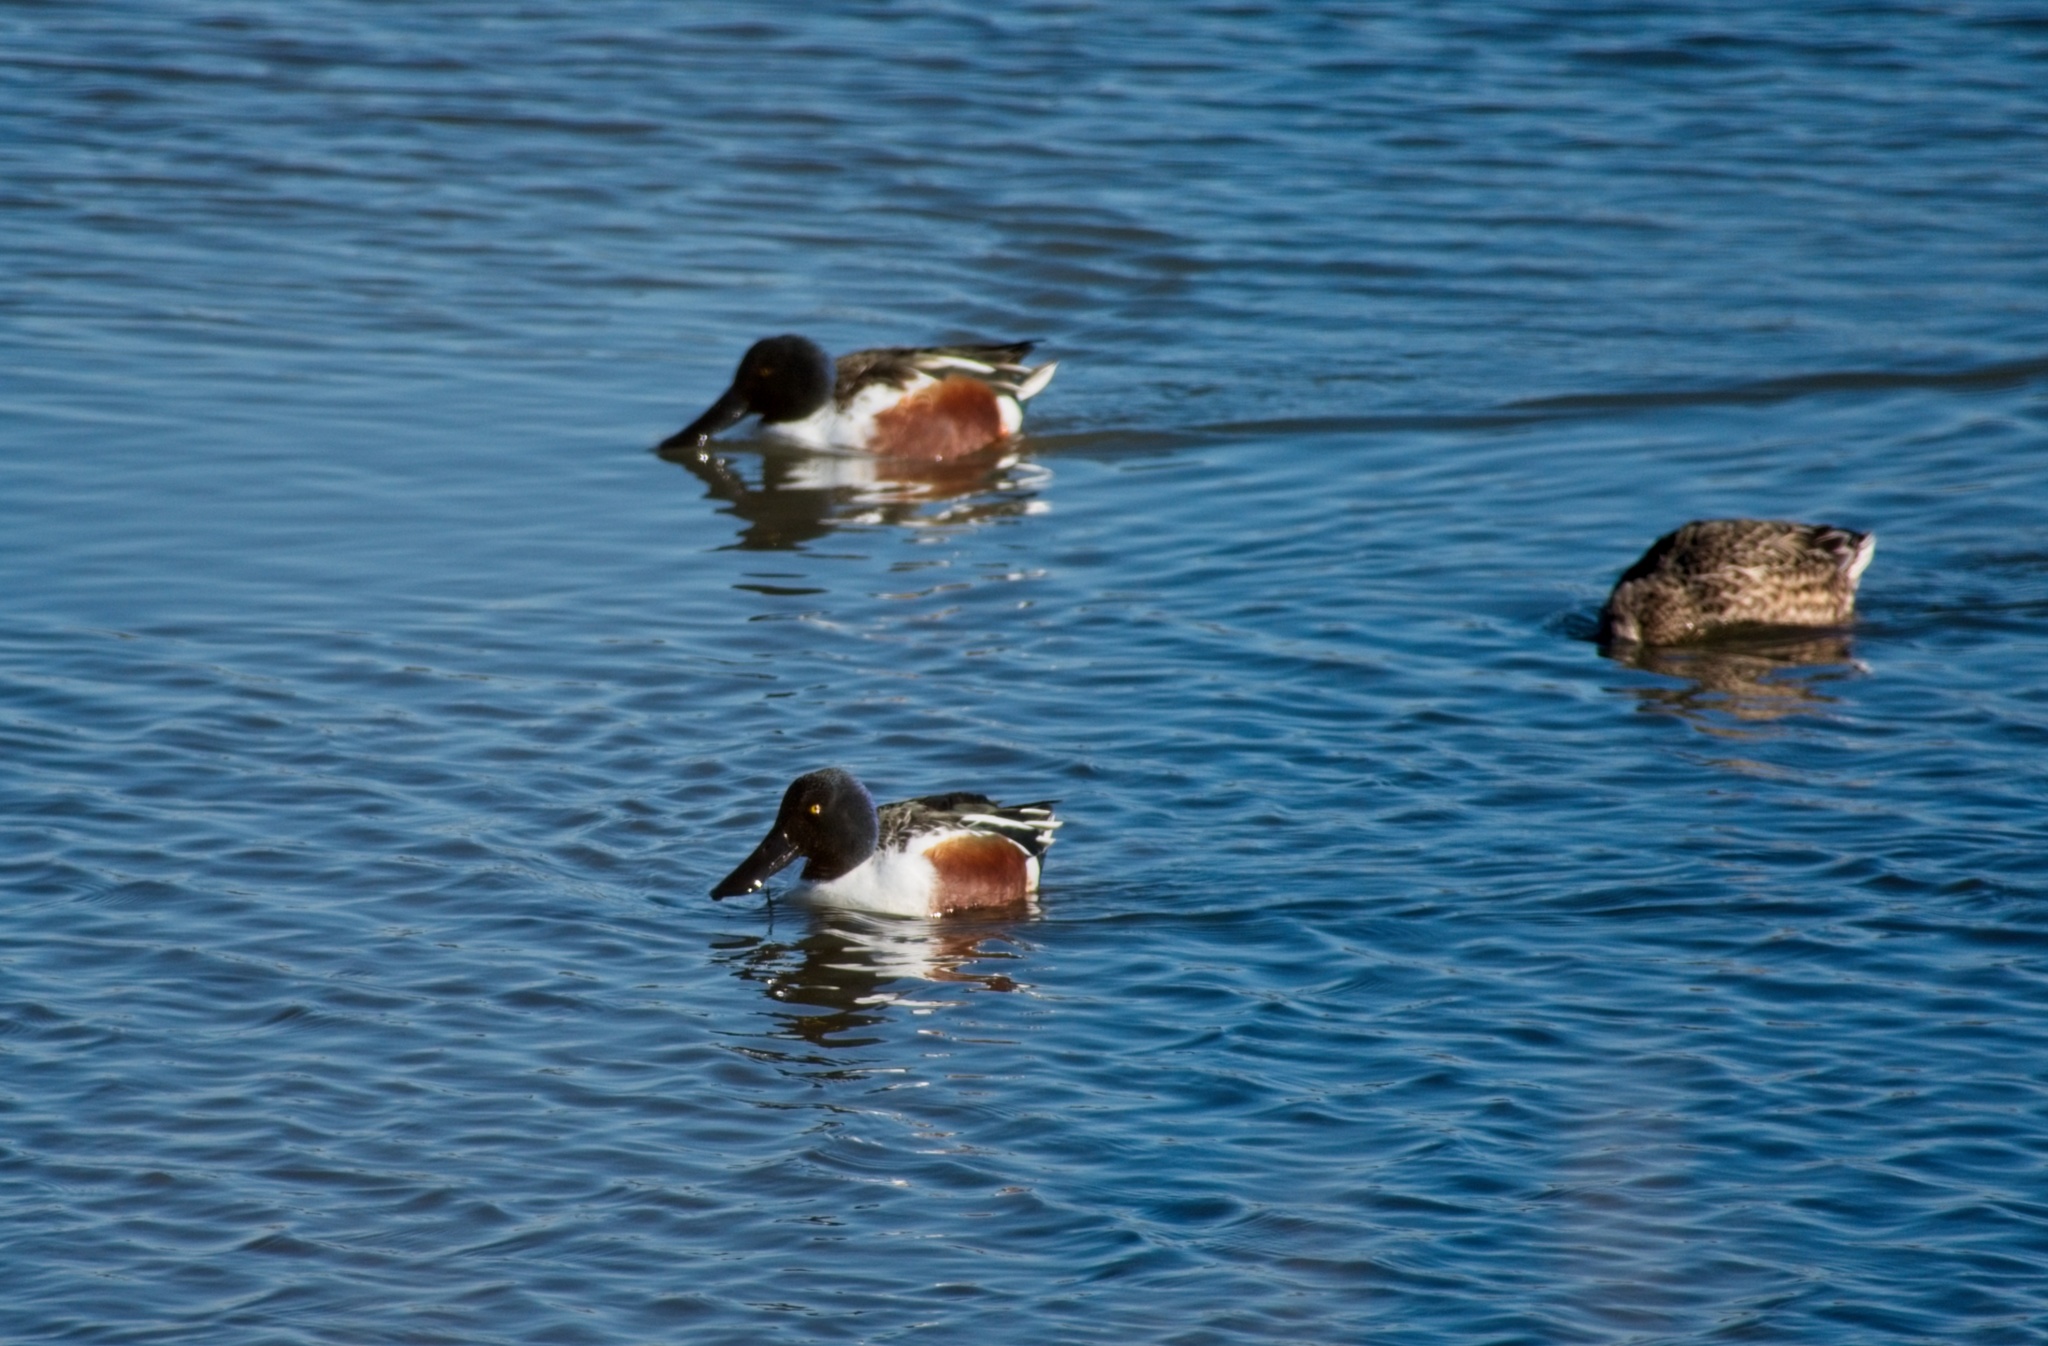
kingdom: Animalia
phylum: Chordata
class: Aves
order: Anseriformes
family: Anatidae
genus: Spatula
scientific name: Spatula clypeata
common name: Northern shoveler
